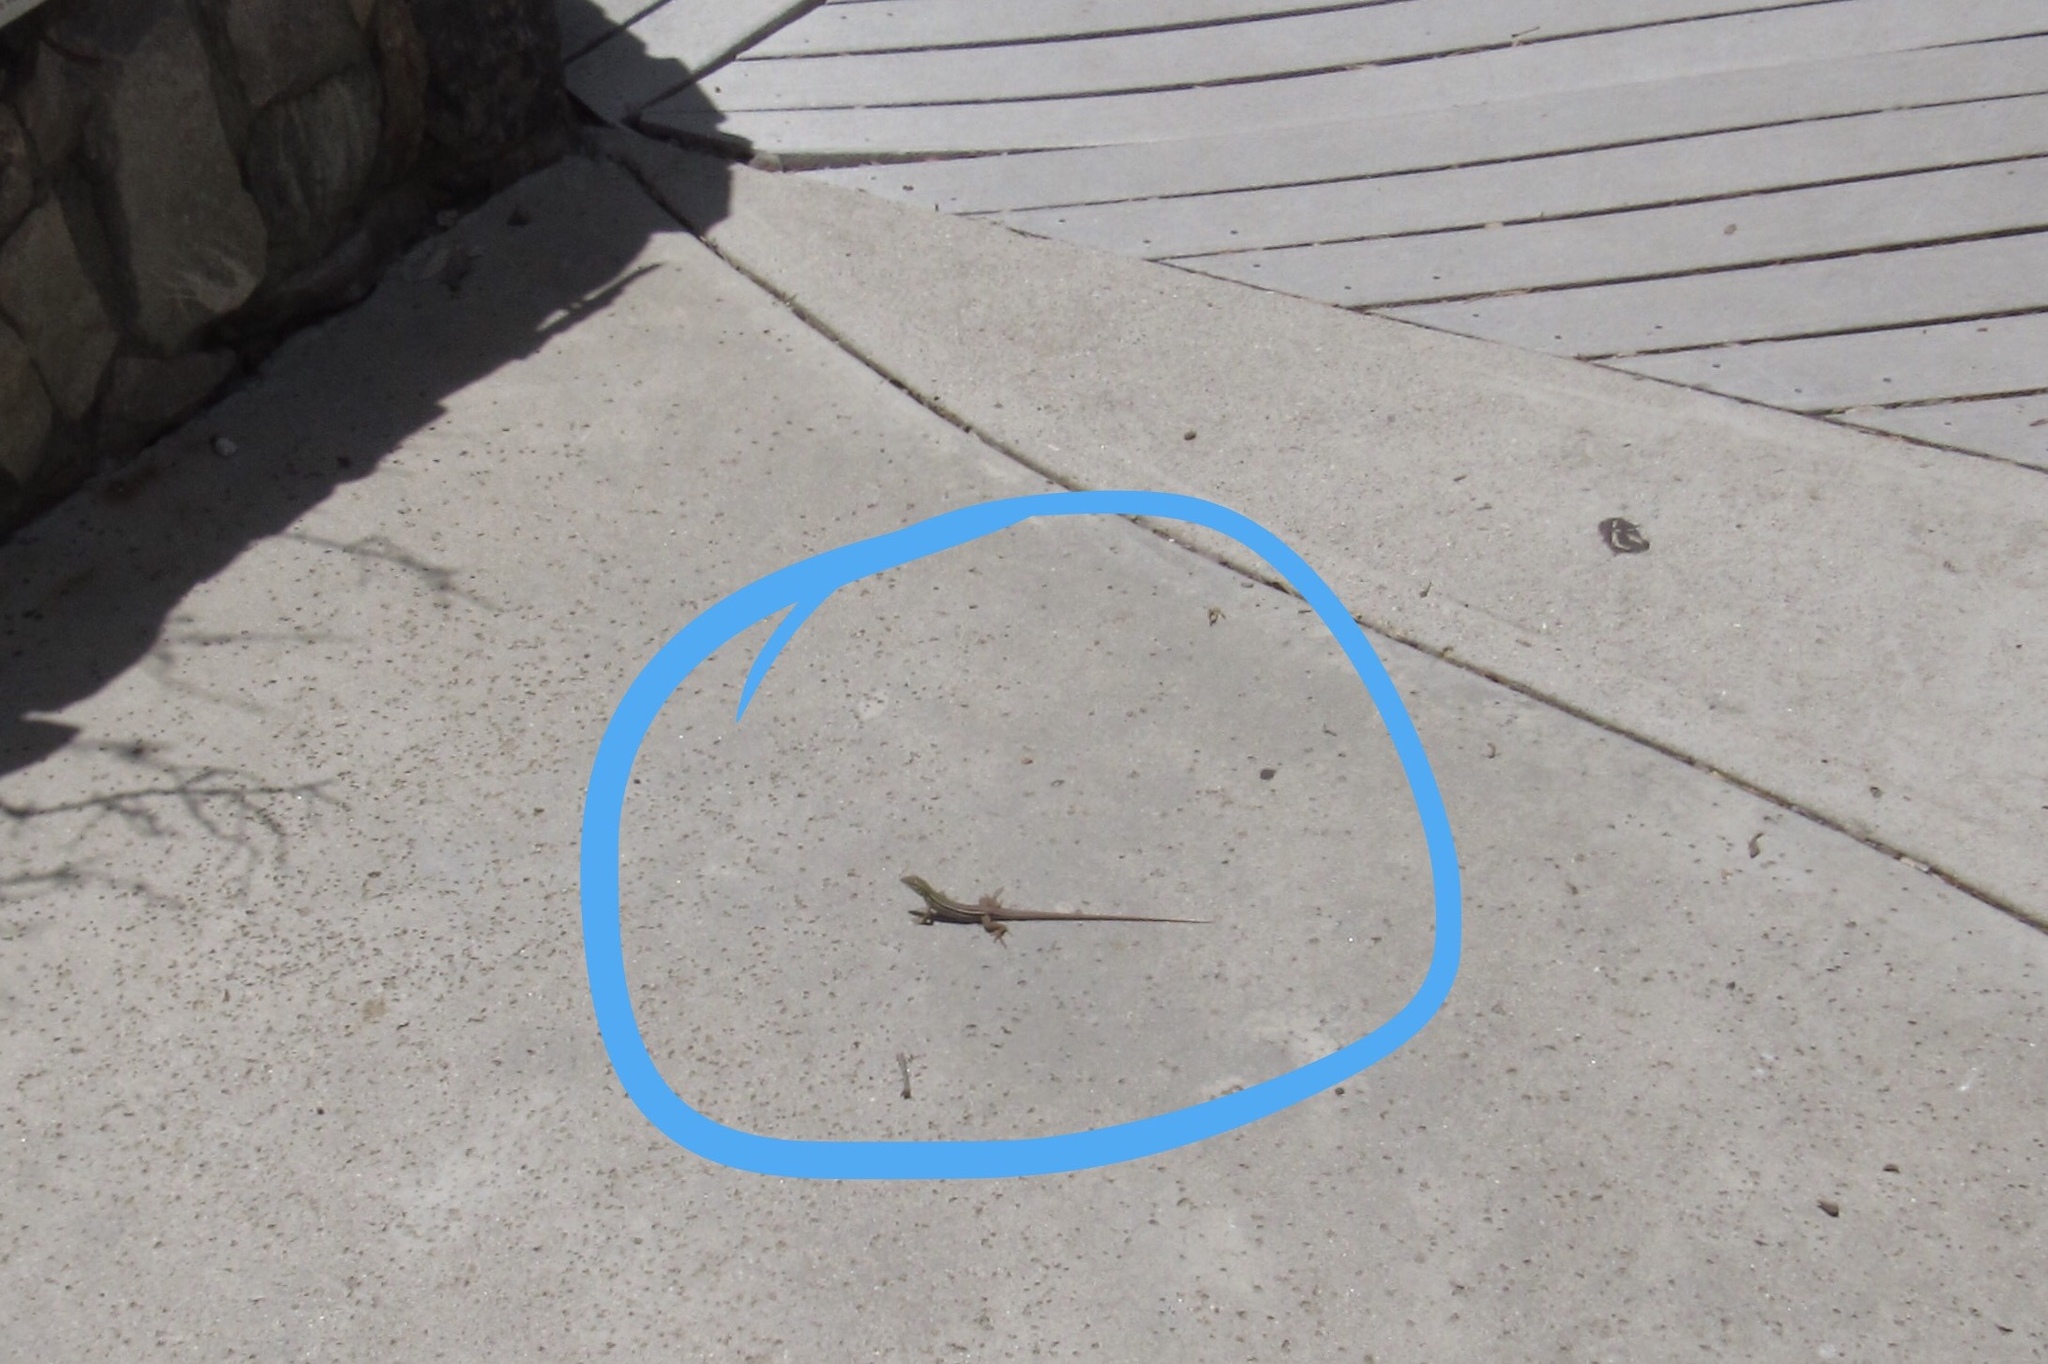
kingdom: Animalia
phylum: Chordata
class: Squamata
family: Teiidae
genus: Aspidoscelis
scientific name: Aspidoscelis uniparens
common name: Desert grassland whiptail
